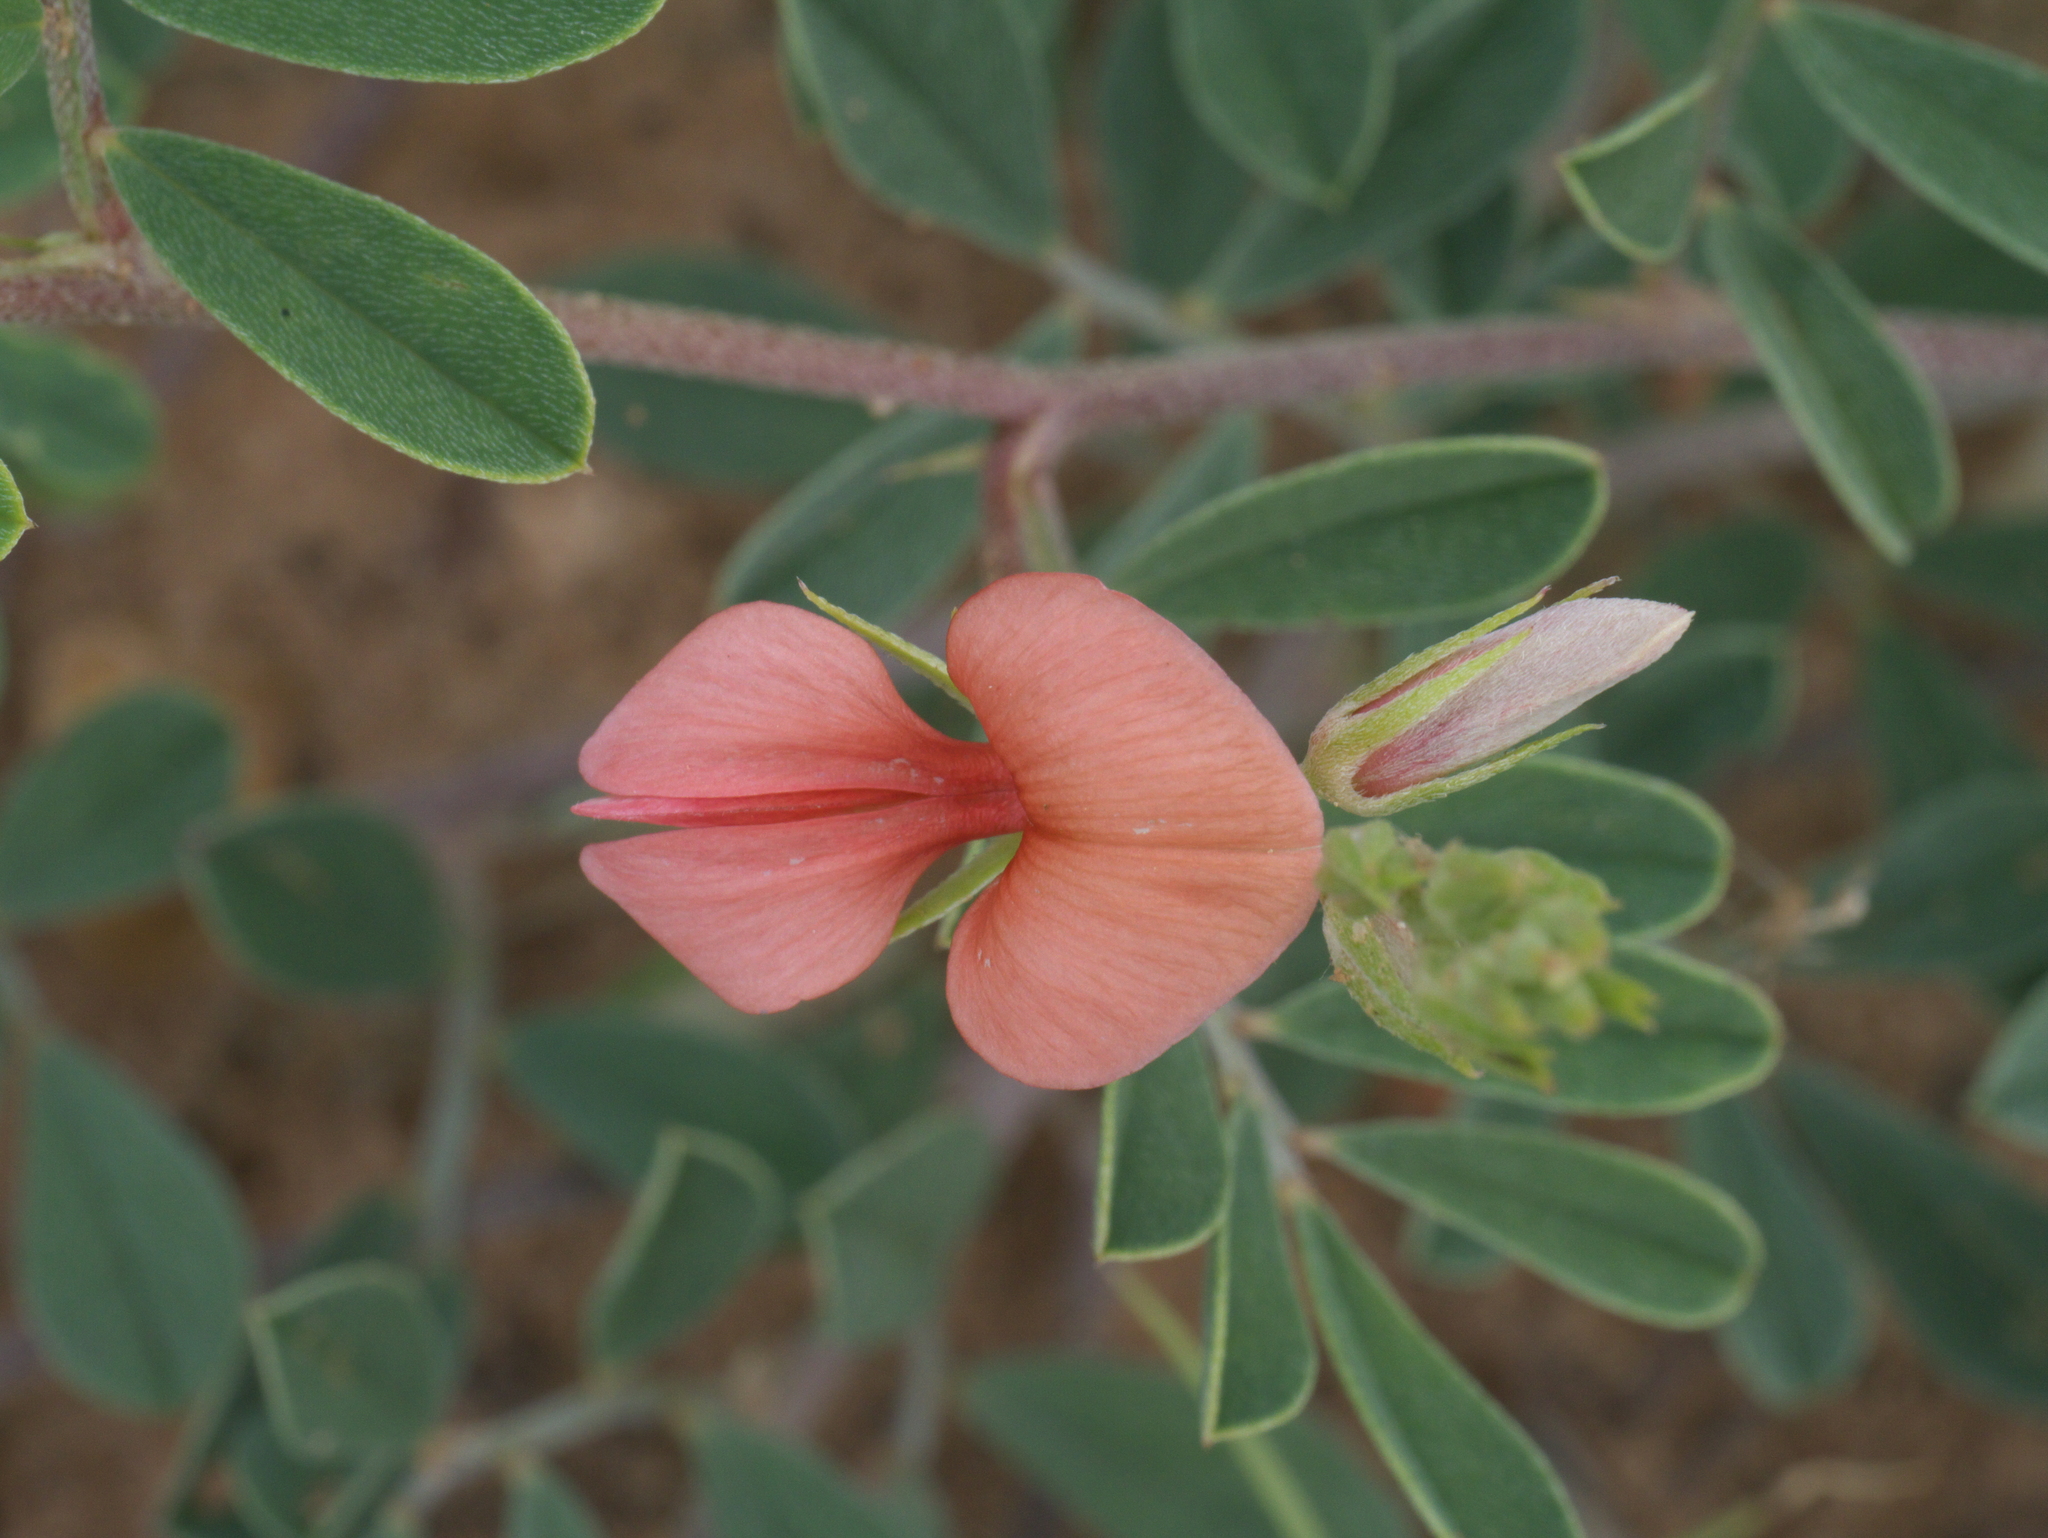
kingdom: Plantae
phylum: Tracheophyta
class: Magnoliopsida
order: Fabales
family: Fabaceae
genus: Indigofera
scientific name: Indigofera miniata
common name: Coast indigo
